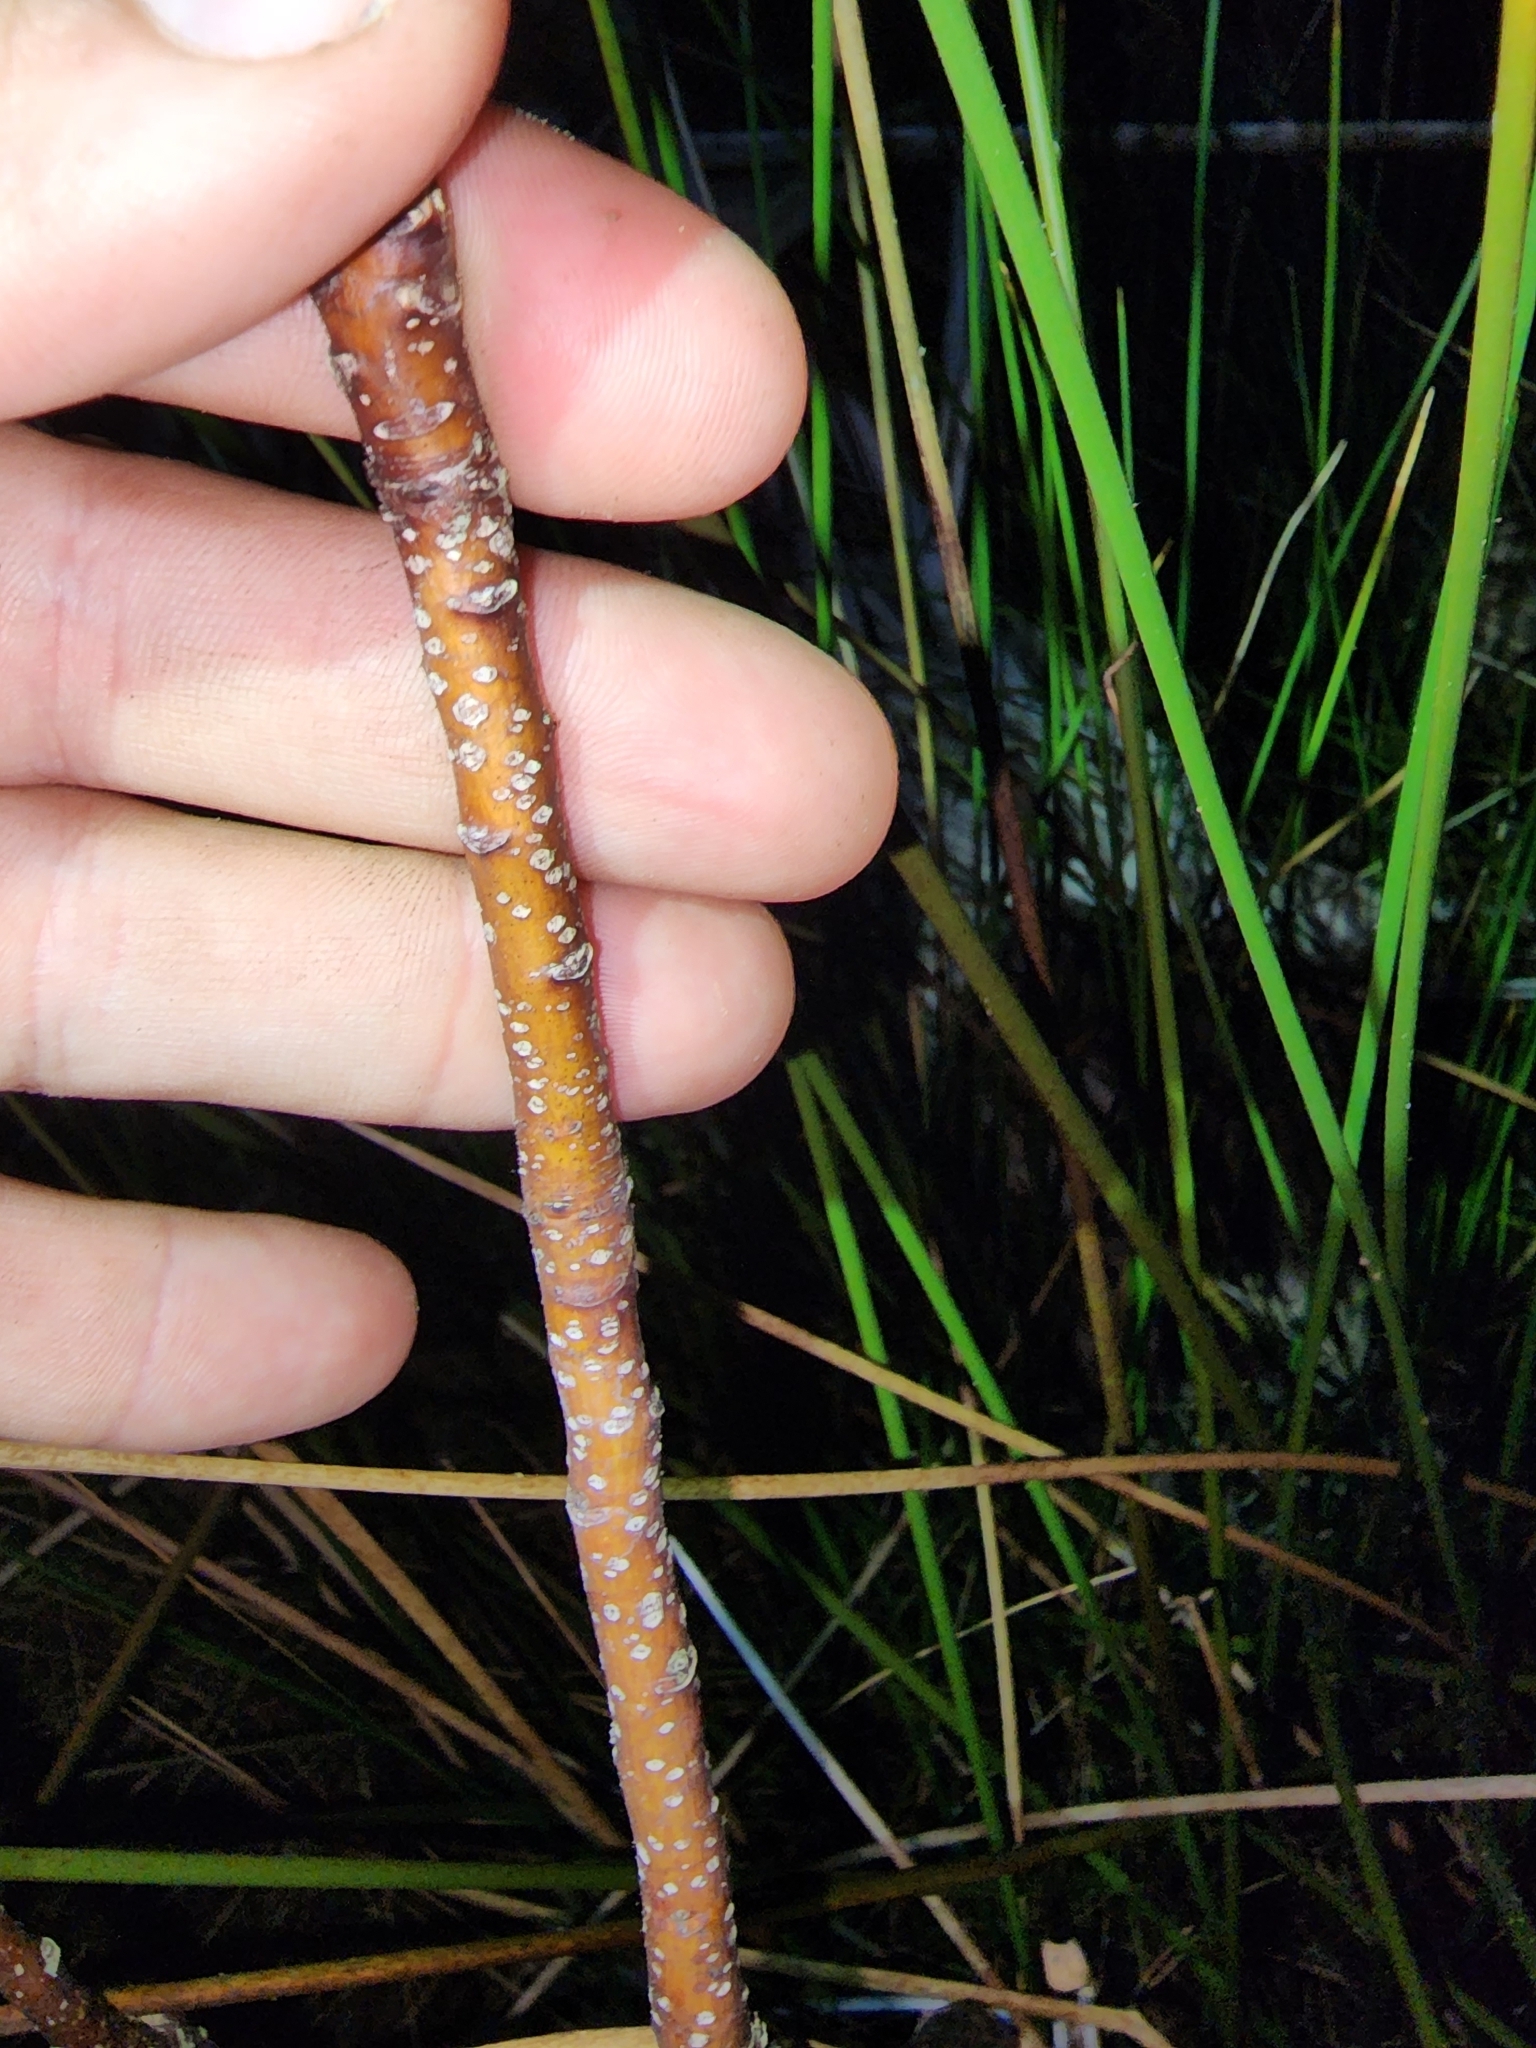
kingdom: Plantae
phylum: Tracheophyta
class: Magnoliopsida
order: Sapindales
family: Simaroubaceae
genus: Leitneria
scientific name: Leitneria floridana
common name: Corkwood
